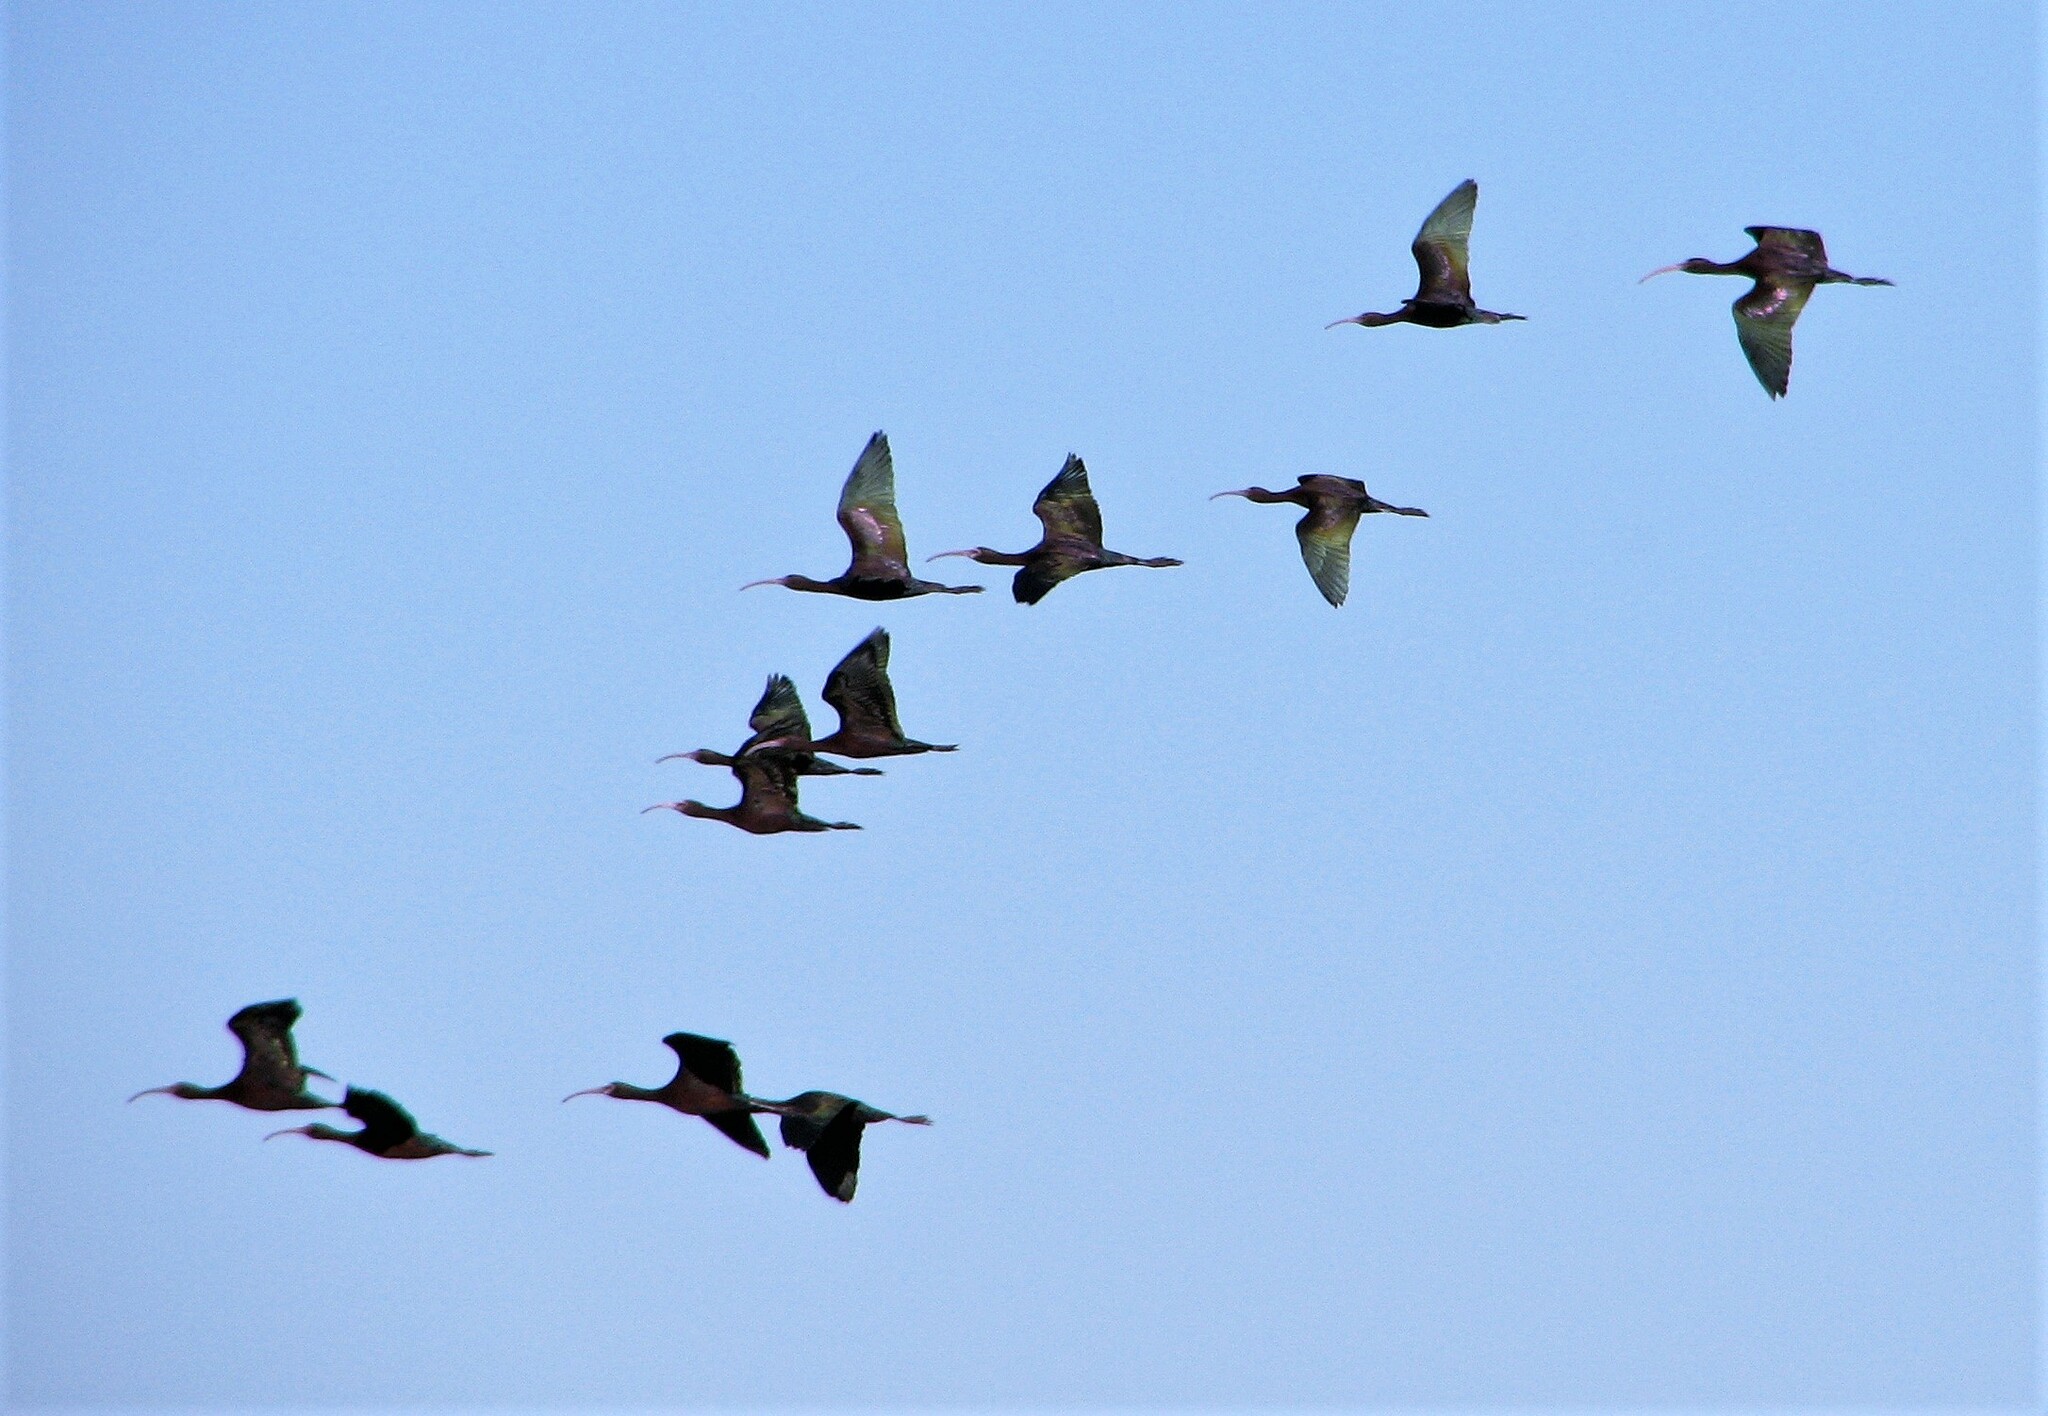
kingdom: Animalia
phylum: Chordata
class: Aves
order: Pelecaniformes
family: Threskiornithidae
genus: Plegadis
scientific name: Plegadis chihi
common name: White-faced ibis
